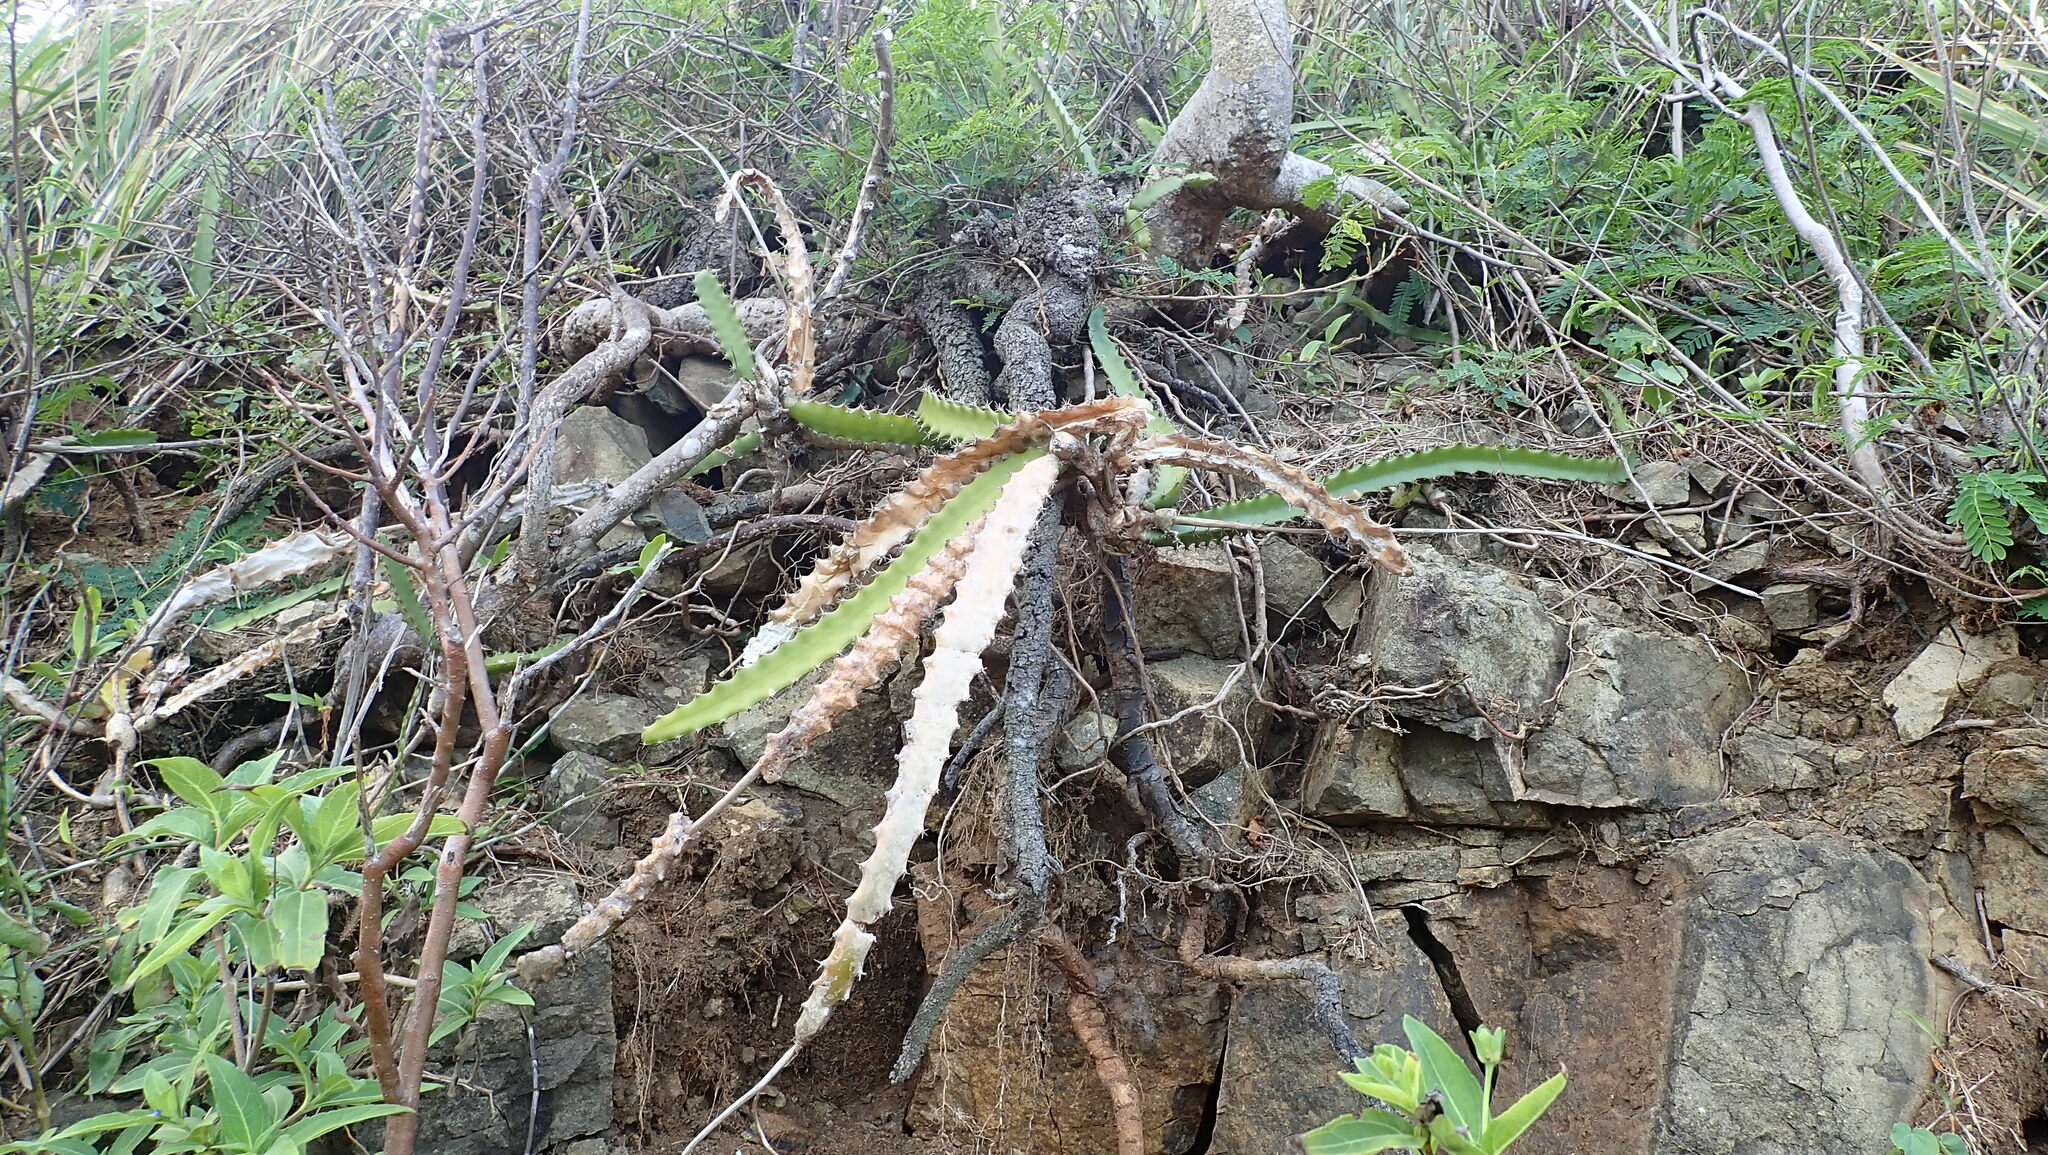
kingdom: Plantae
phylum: Tracheophyta
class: Magnoliopsida
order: Caryophyllales
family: Cactaceae
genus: Selenicereus
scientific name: Selenicereus triangularis
